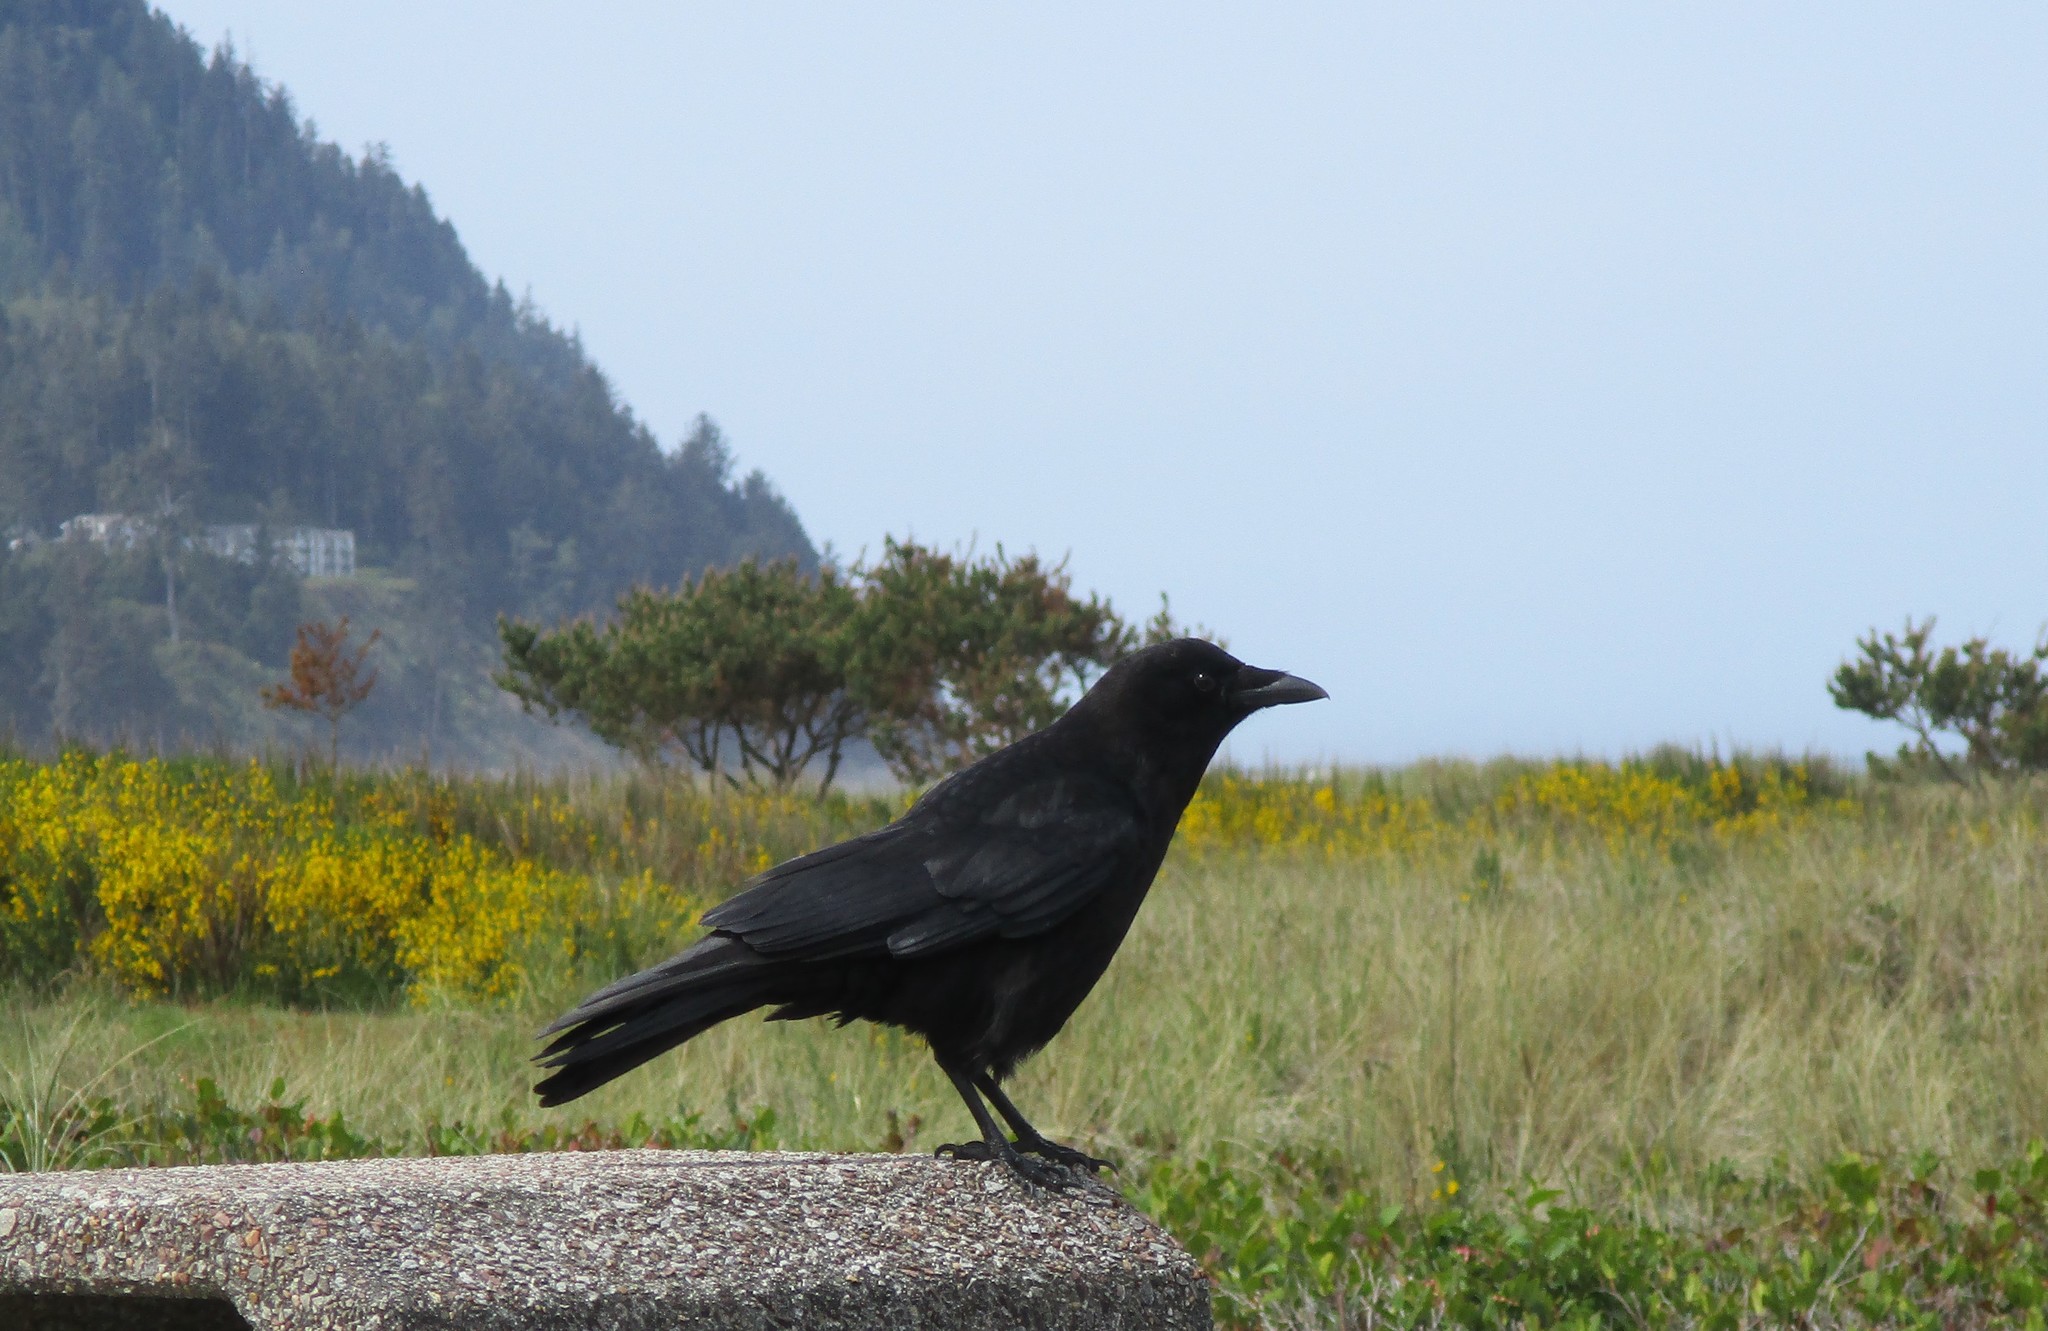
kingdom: Animalia
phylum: Chordata
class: Aves
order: Passeriformes
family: Corvidae
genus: Corvus
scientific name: Corvus brachyrhynchos
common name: American crow
